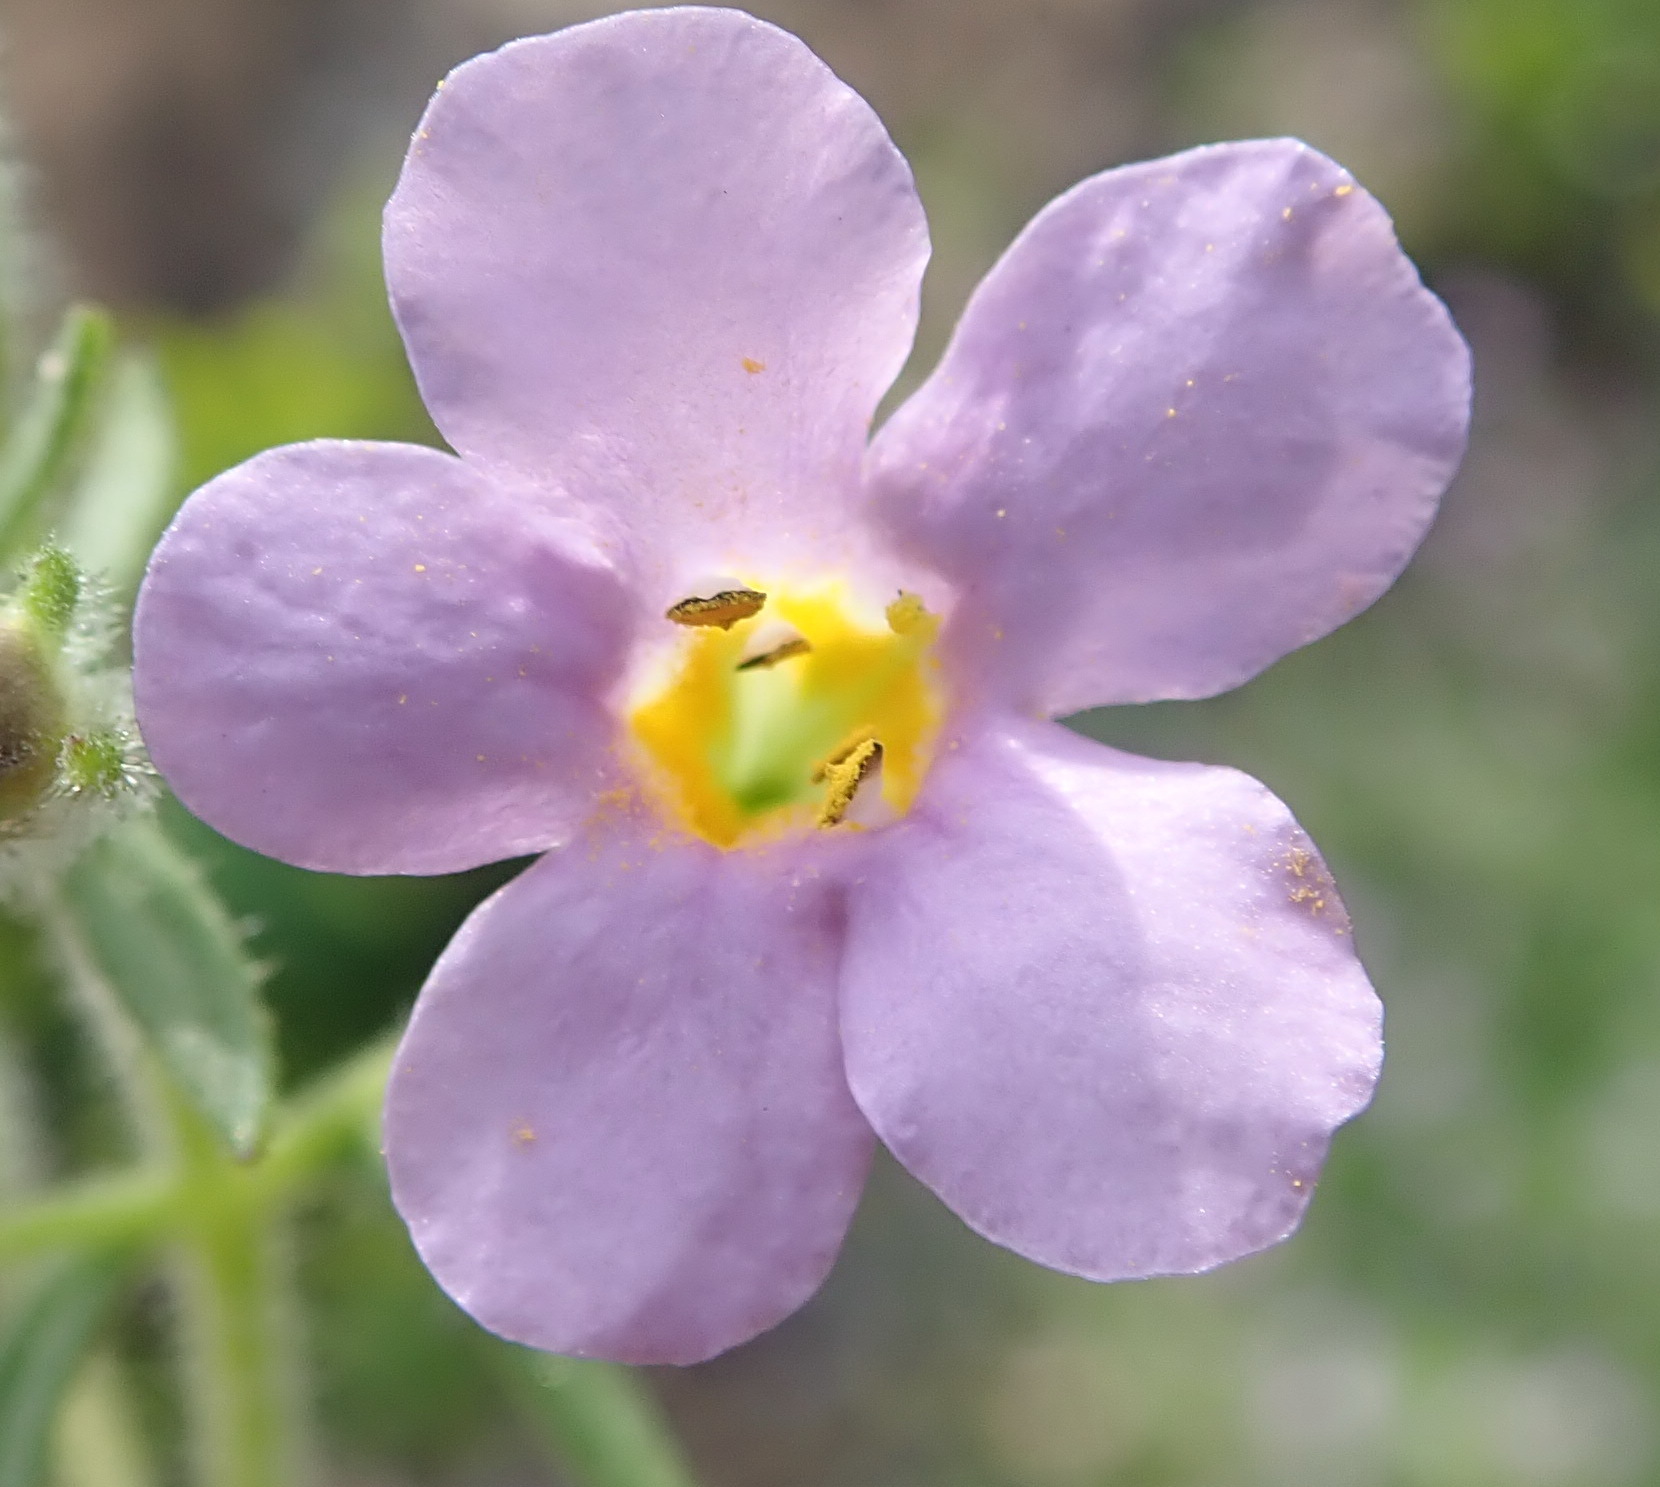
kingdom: Plantae
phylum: Tracheophyta
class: Magnoliopsida
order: Lamiales
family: Scrophulariaceae
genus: Chaenostoma
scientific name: Chaenostoma campanulatum
